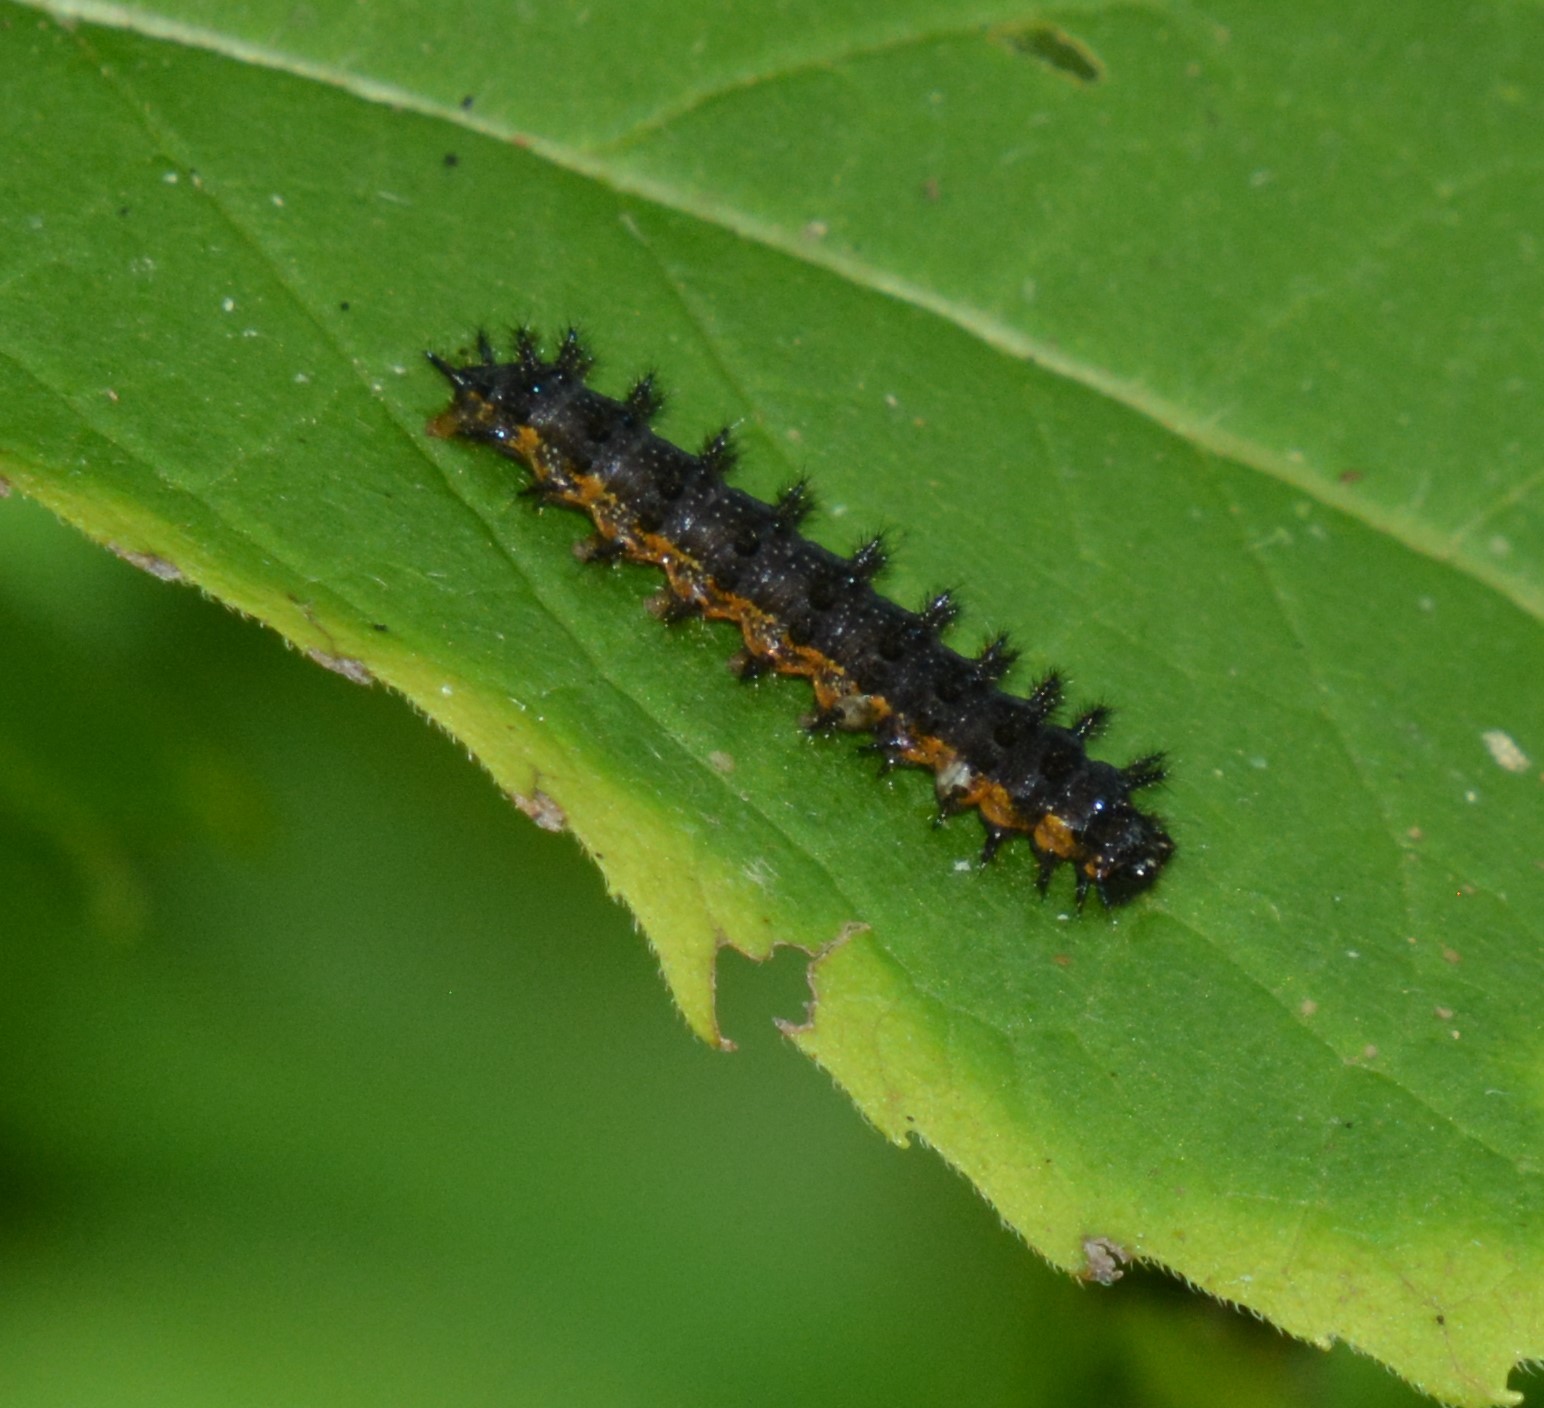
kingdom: Animalia
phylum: Arthropoda
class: Insecta
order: Lepidoptera
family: Nymphalidae
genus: Chlosyne
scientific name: Chlosyne nycteis
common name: Silvery checkerspot
